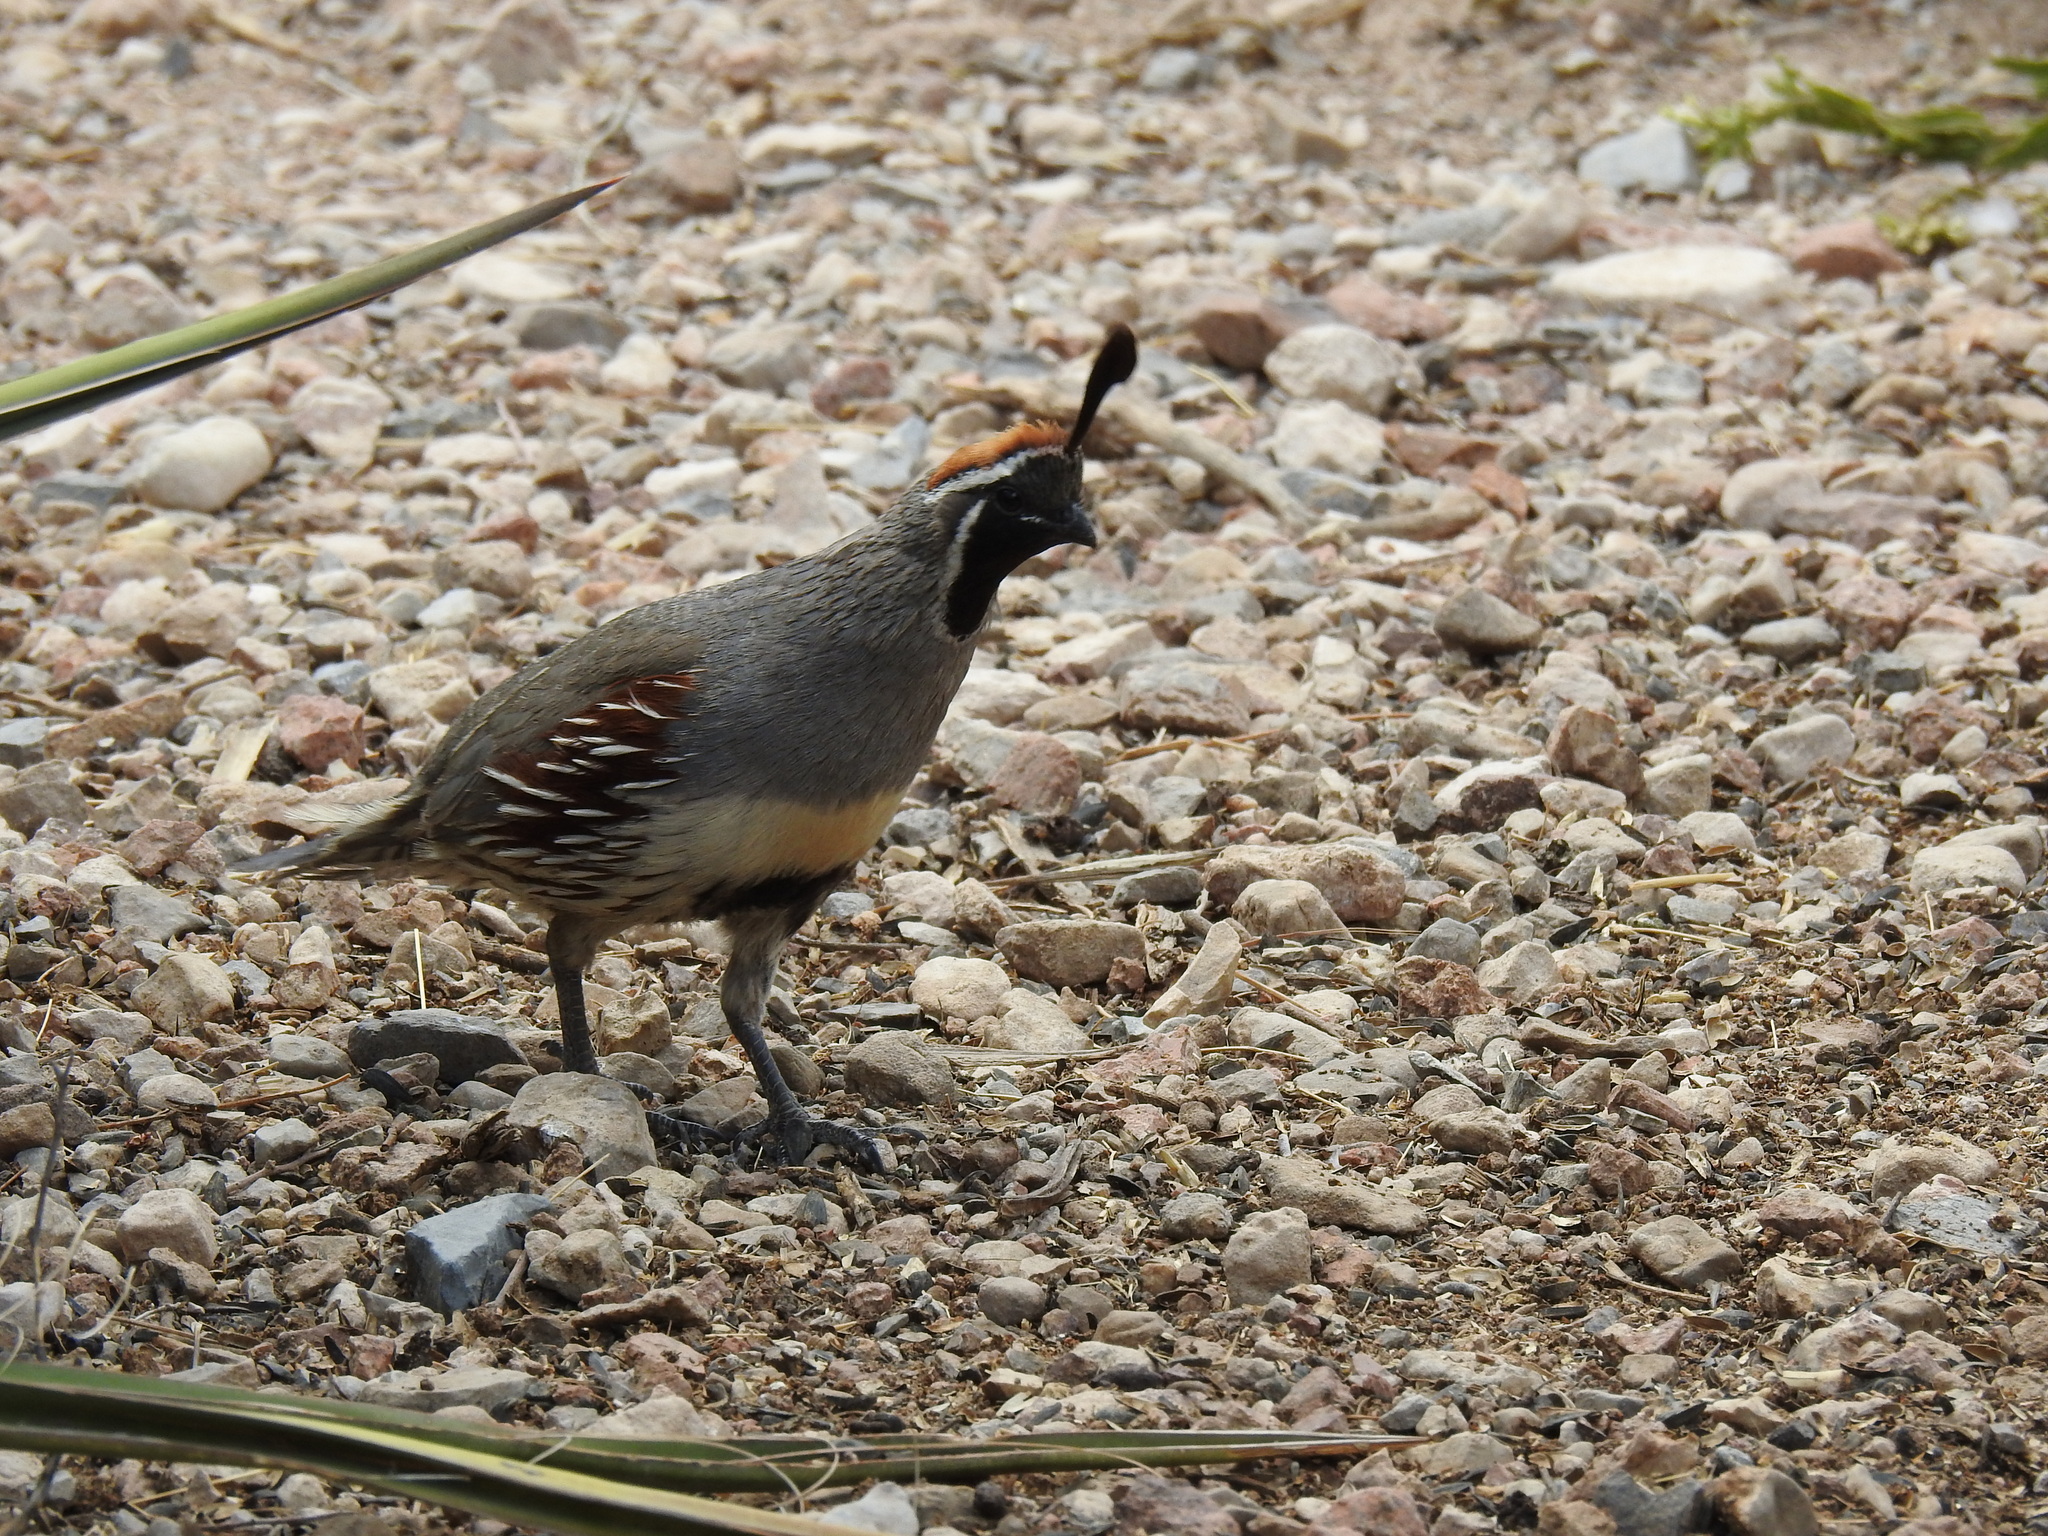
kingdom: Animalia
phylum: Chordata
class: Aves
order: Galliformes
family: Odontophoridae
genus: Callipepla
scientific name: Callipepla gambelii
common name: Gambel's quail
